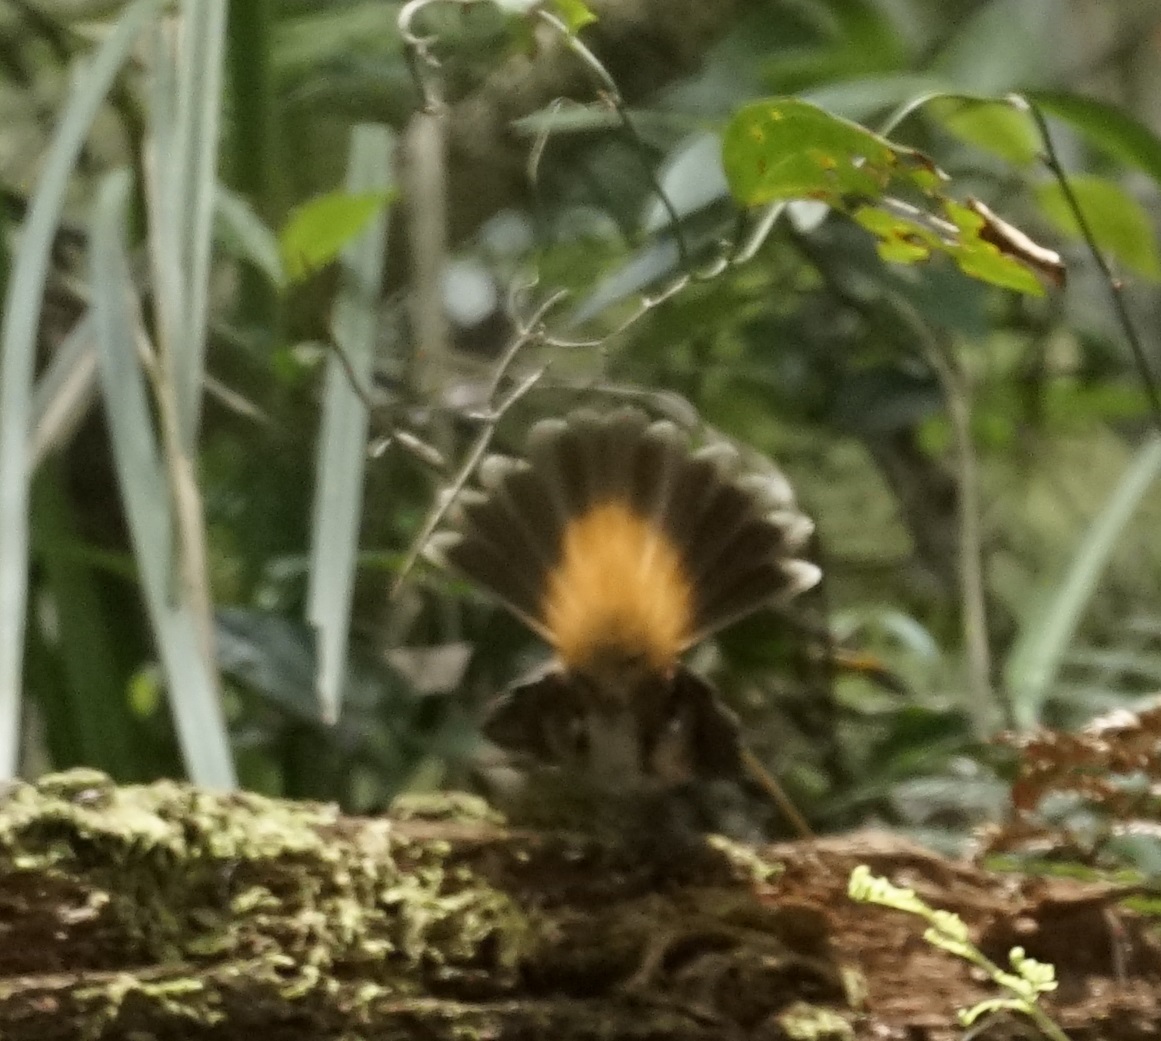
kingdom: Animalia
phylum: Chordata
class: Aves
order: Passeriformes
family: Rhipiduridae
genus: Rhipidura
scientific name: Rhipidura rufifrons
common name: Rufous fantail
